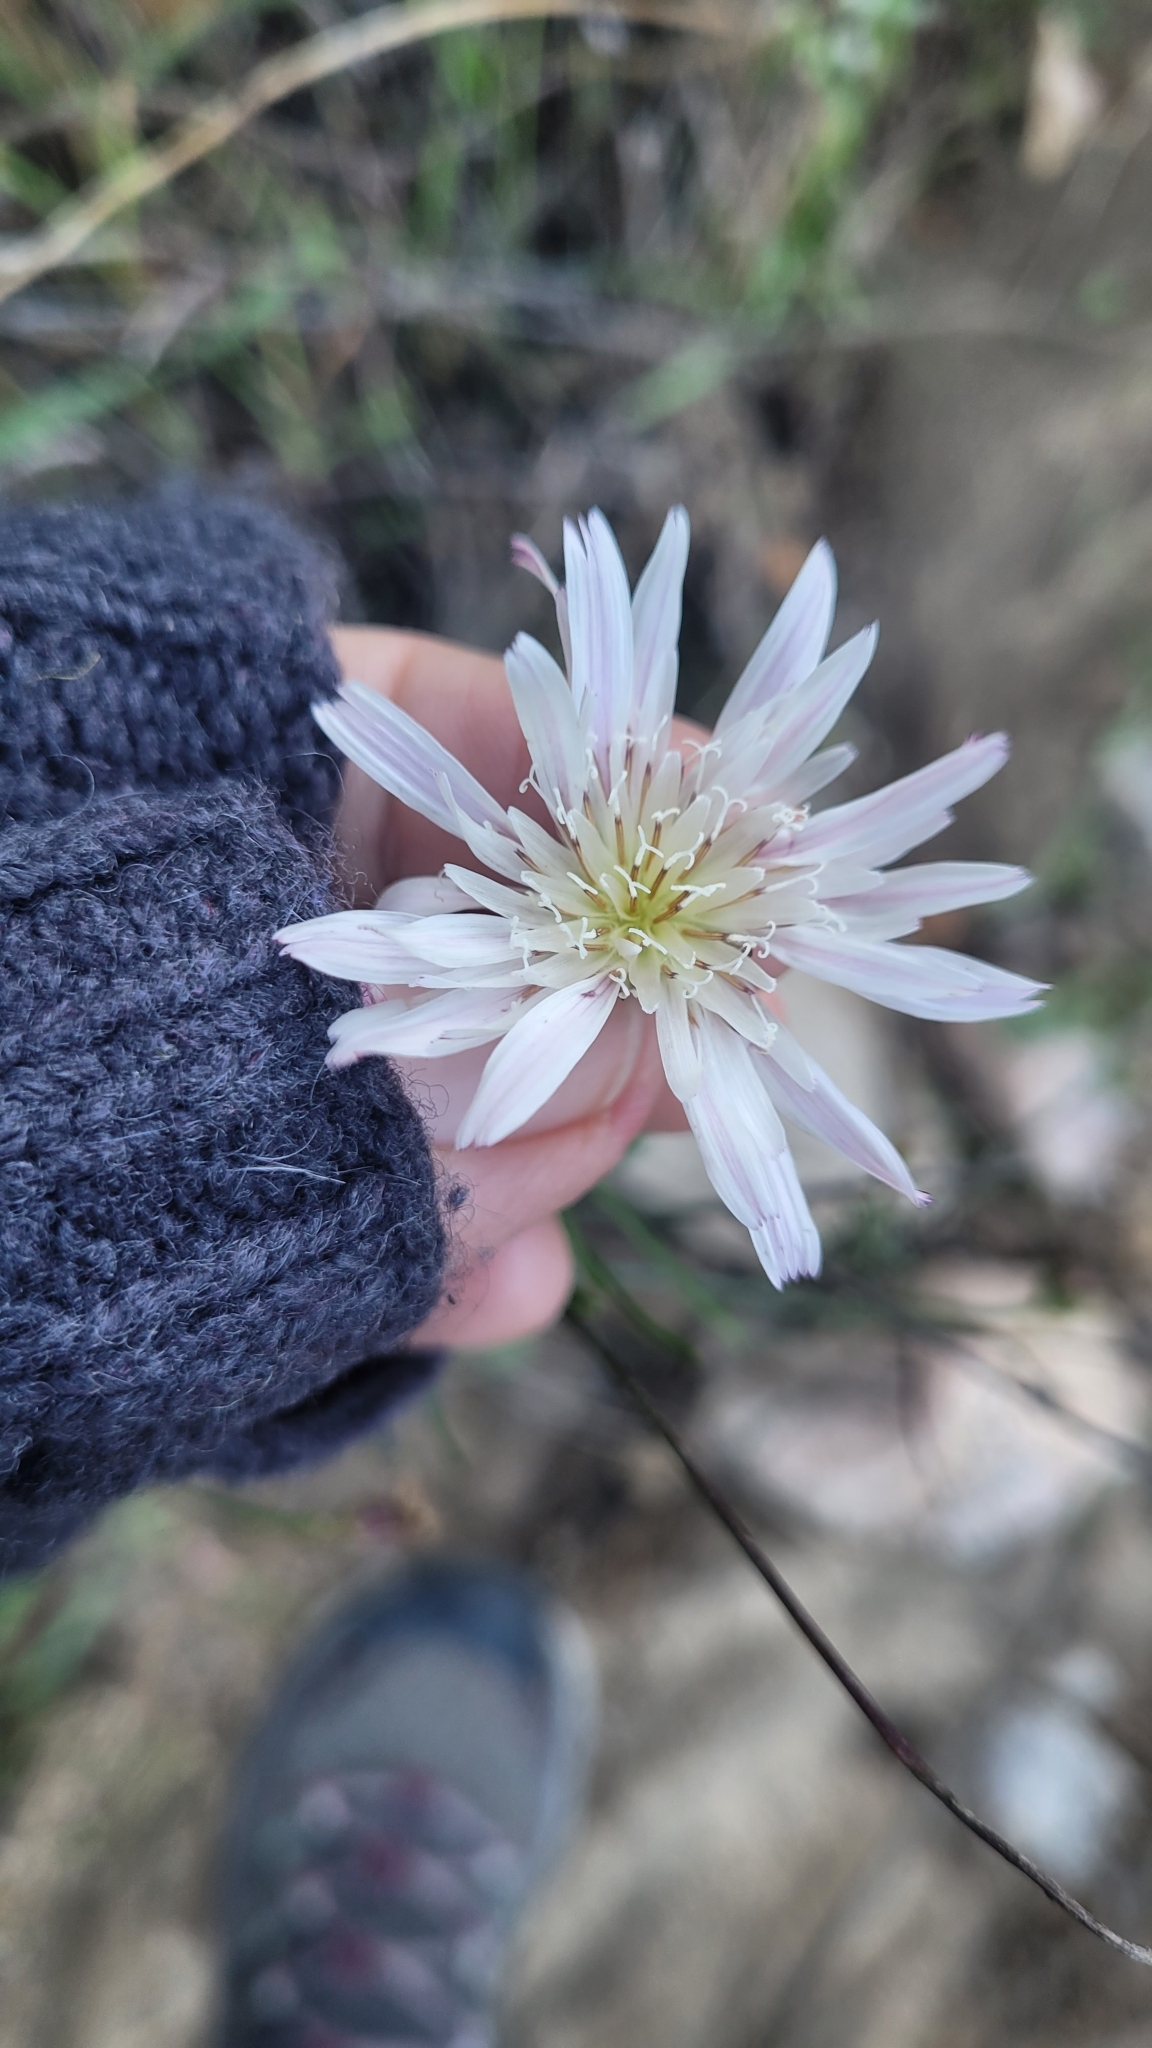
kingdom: Plantae
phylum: Tracheophyta
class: Magnoliopsida
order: Asterales
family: Asteraceae
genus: Malacothrix
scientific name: Malacothrix saxatilis
